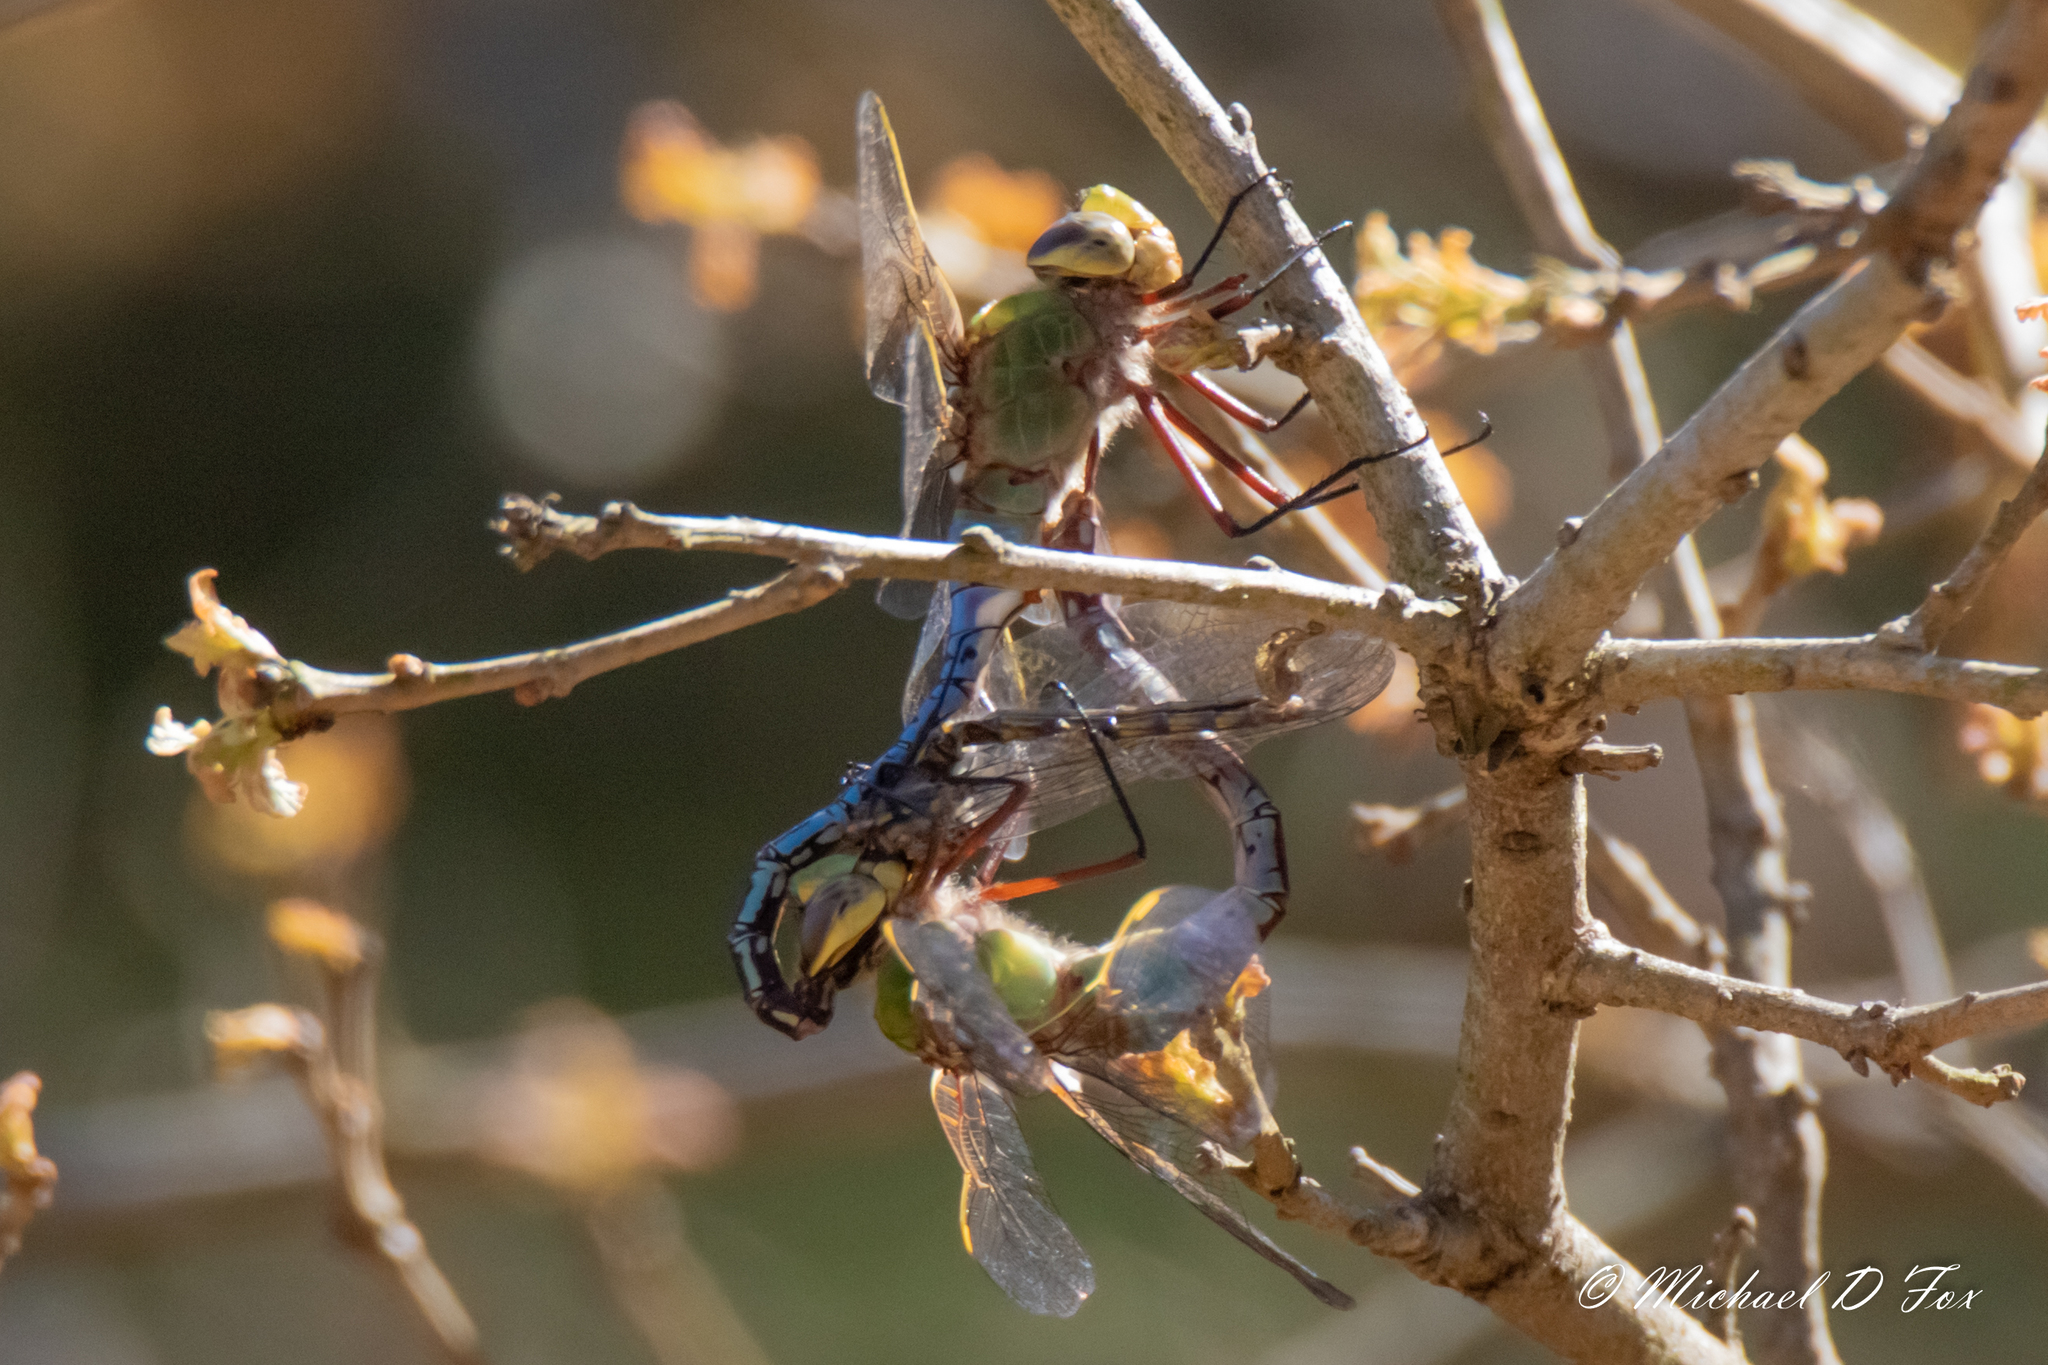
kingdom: Animalia
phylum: Arthropoda
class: Insecta
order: Odonata
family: Aeshnidae
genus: Anax
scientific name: Anax junius
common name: Common green darner
